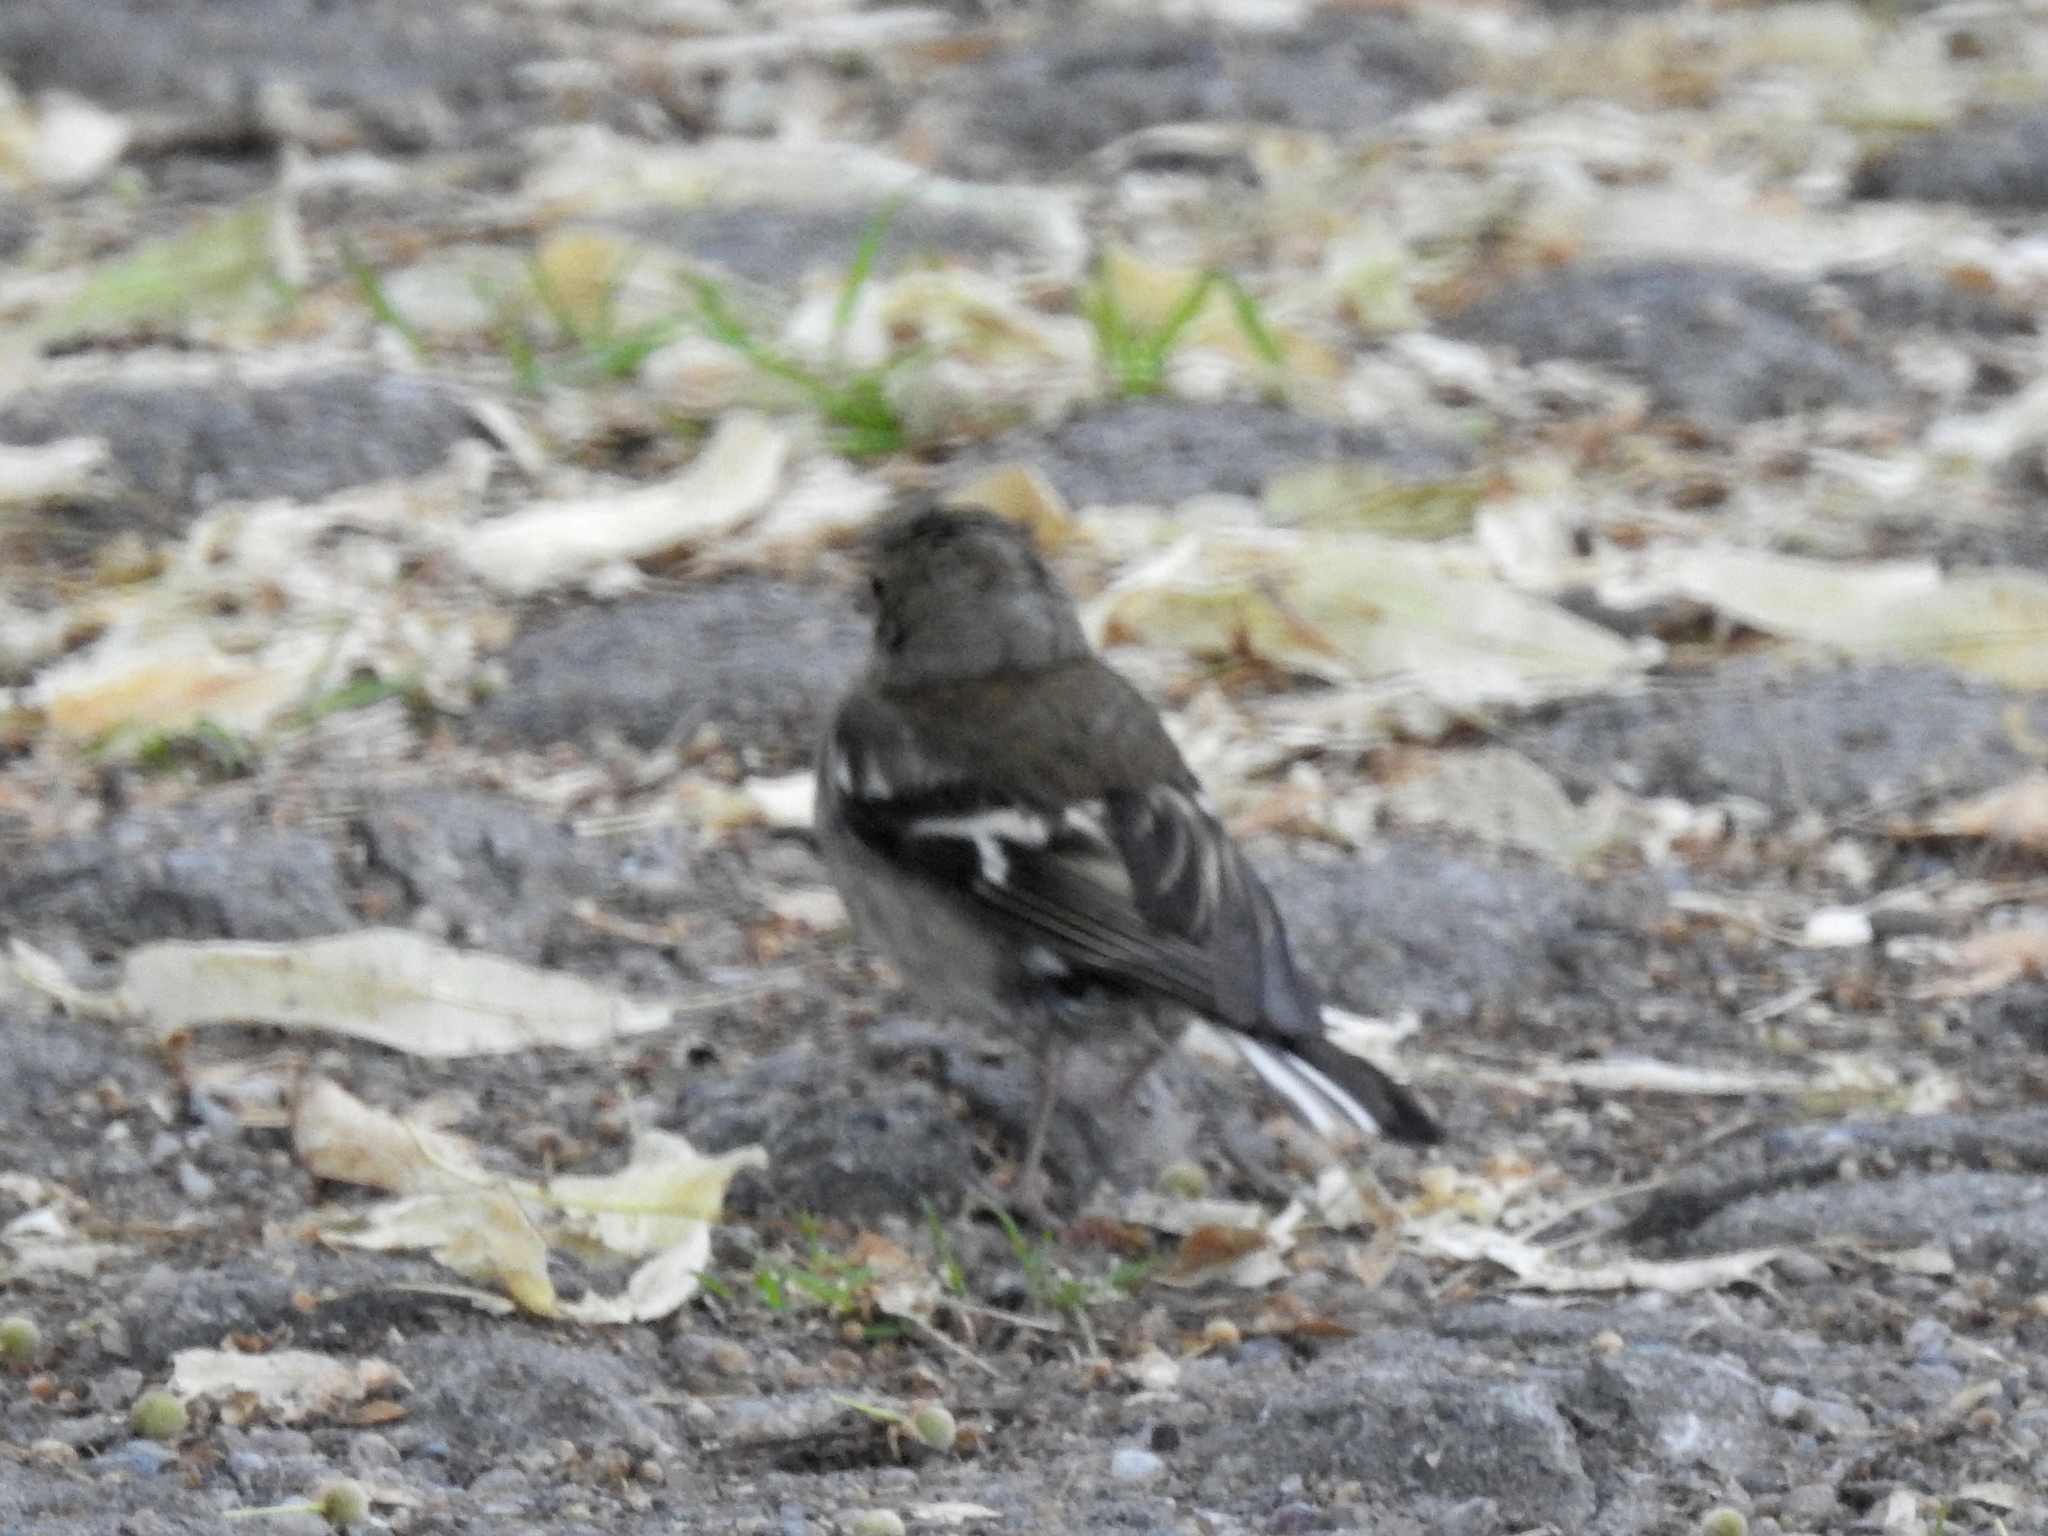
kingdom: Animalia
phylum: Chordata
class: Aves
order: Passeriformes
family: Fringillidae
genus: Fringilla
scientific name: Fringilla coelebs
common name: Common chaffinch
